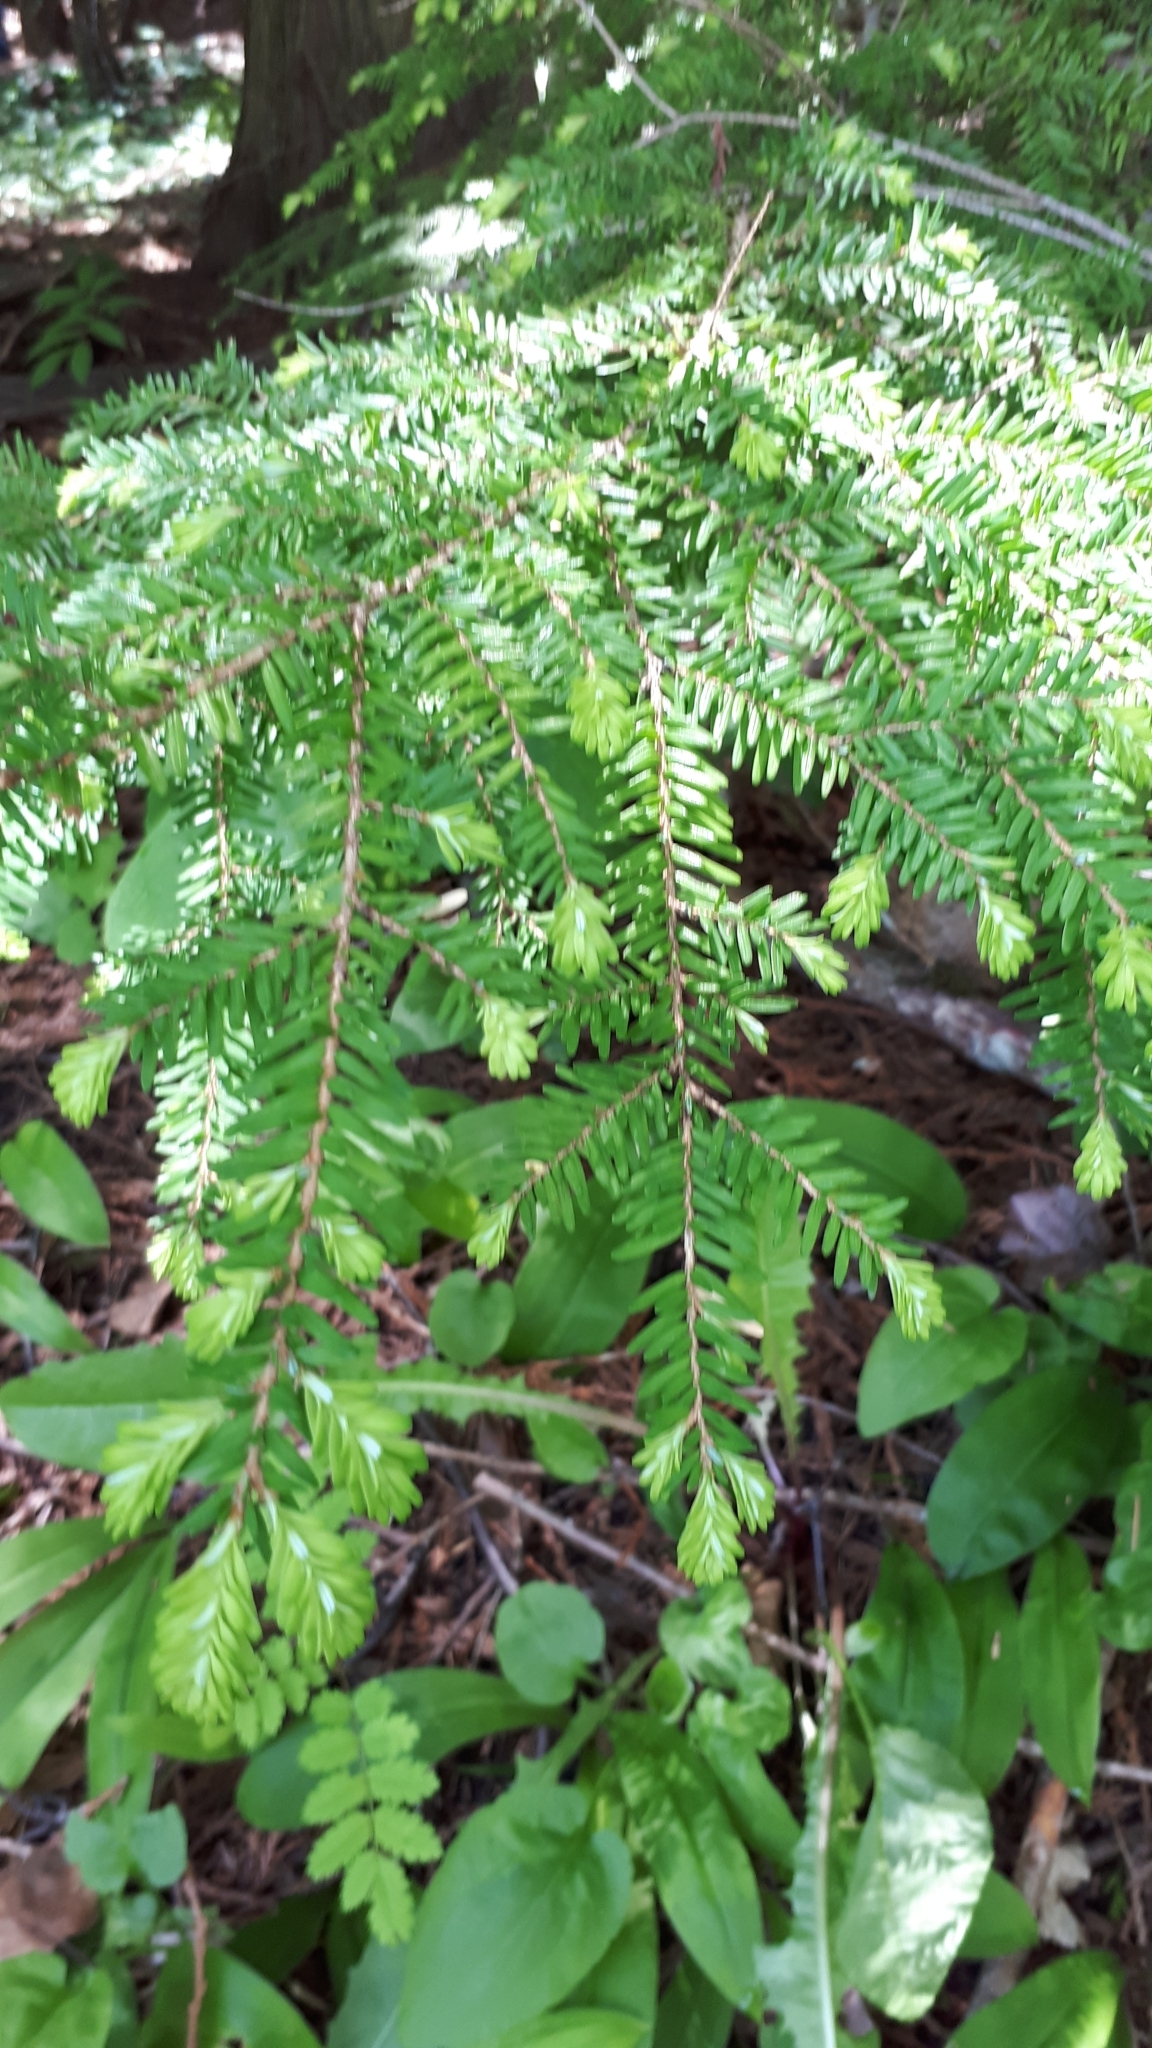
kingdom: Plantae
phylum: Tracheophyta
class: Pinopsida
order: Pinales
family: Pinaceae
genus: Tsuga
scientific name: Tsuga heterophylla
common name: Western hemlock
